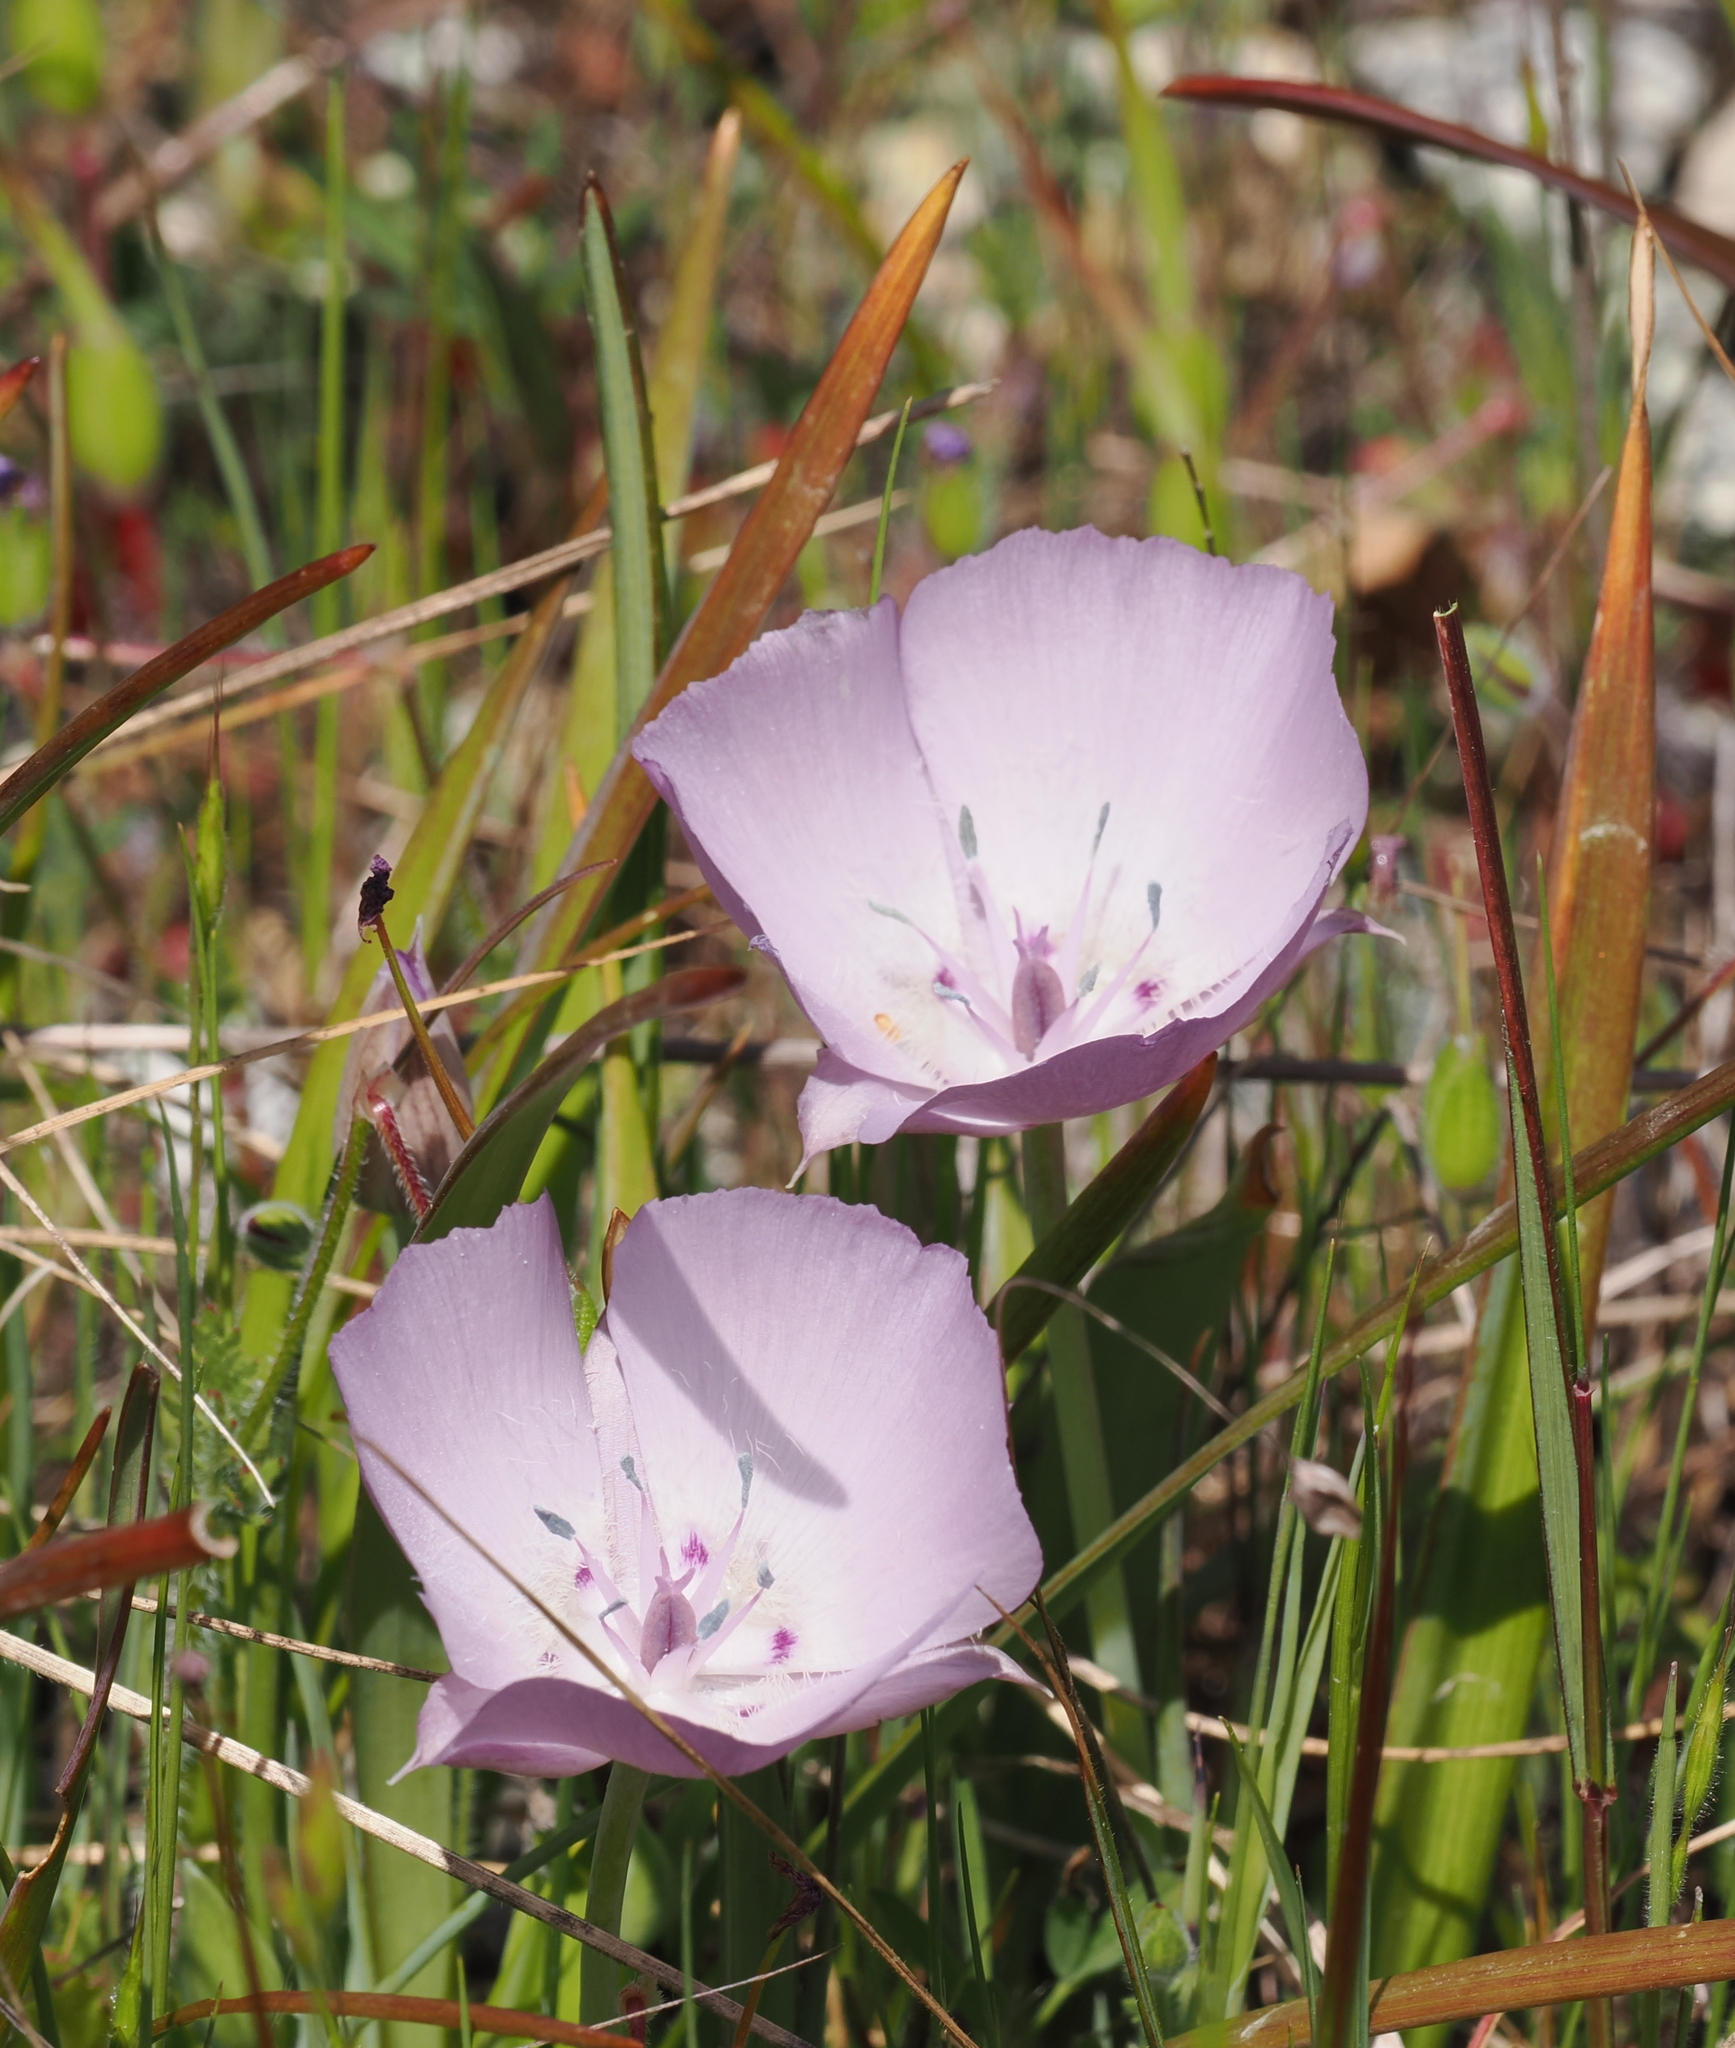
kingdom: Plantae
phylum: Tracheophyta
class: Liliopsida
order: Liliales
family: Liliaceae
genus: Calochortus
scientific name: Calochortus uniflorus
